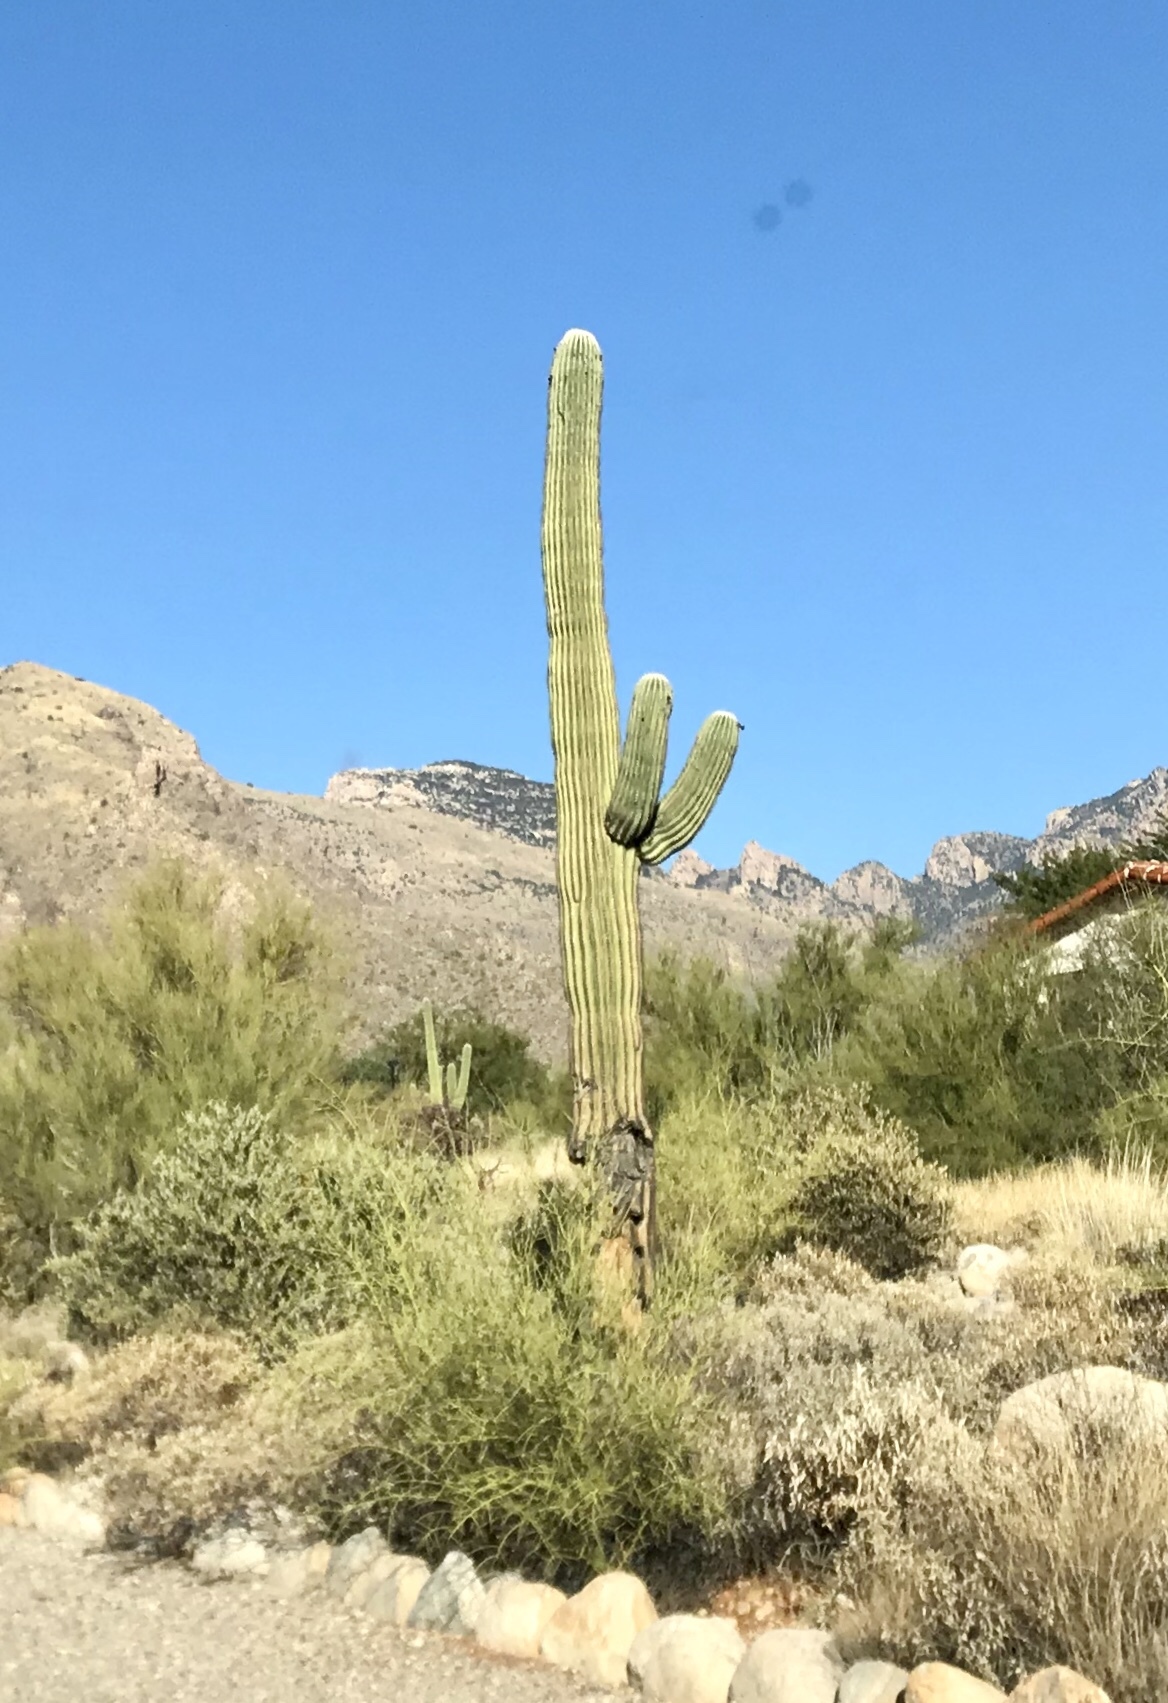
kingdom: Plantae
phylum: Tracheophyta
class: Magnoliopsida
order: Caryophyllales
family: Cactaceae
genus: Carnegiea
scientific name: Carnegiea gigantea
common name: Saguaro
